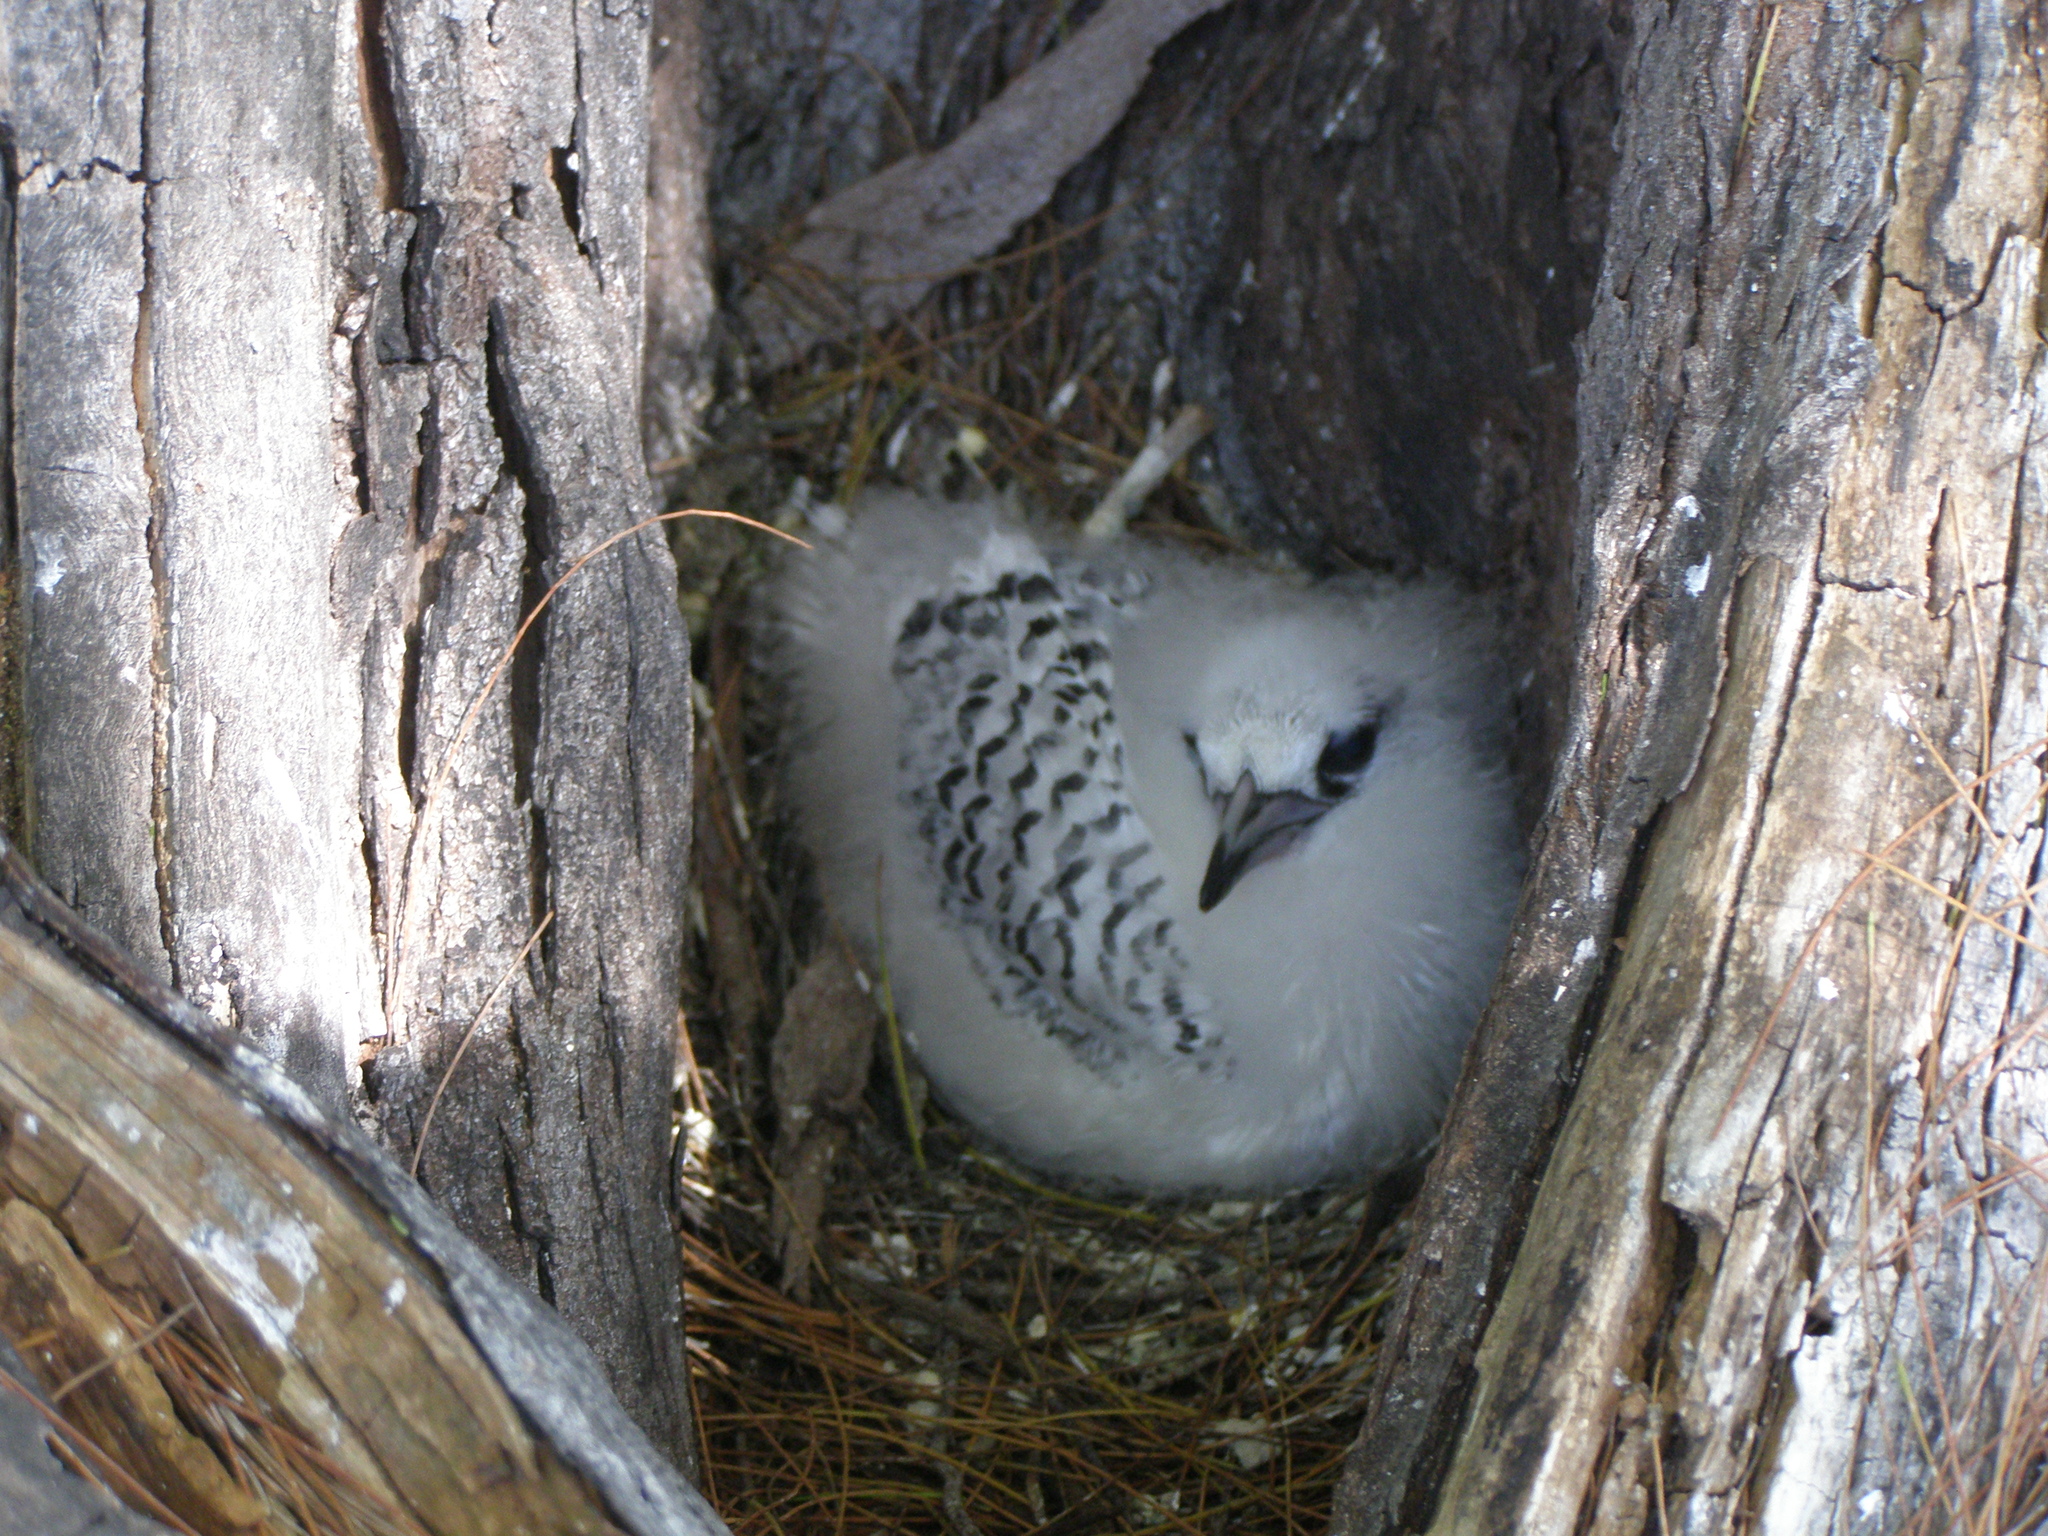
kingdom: Animalia
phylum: Chordata
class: Aves
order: Phaethontiformes
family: Phaethontidae
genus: Phaethon
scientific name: Phaethon lepturus
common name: White-tailed tropicbird
